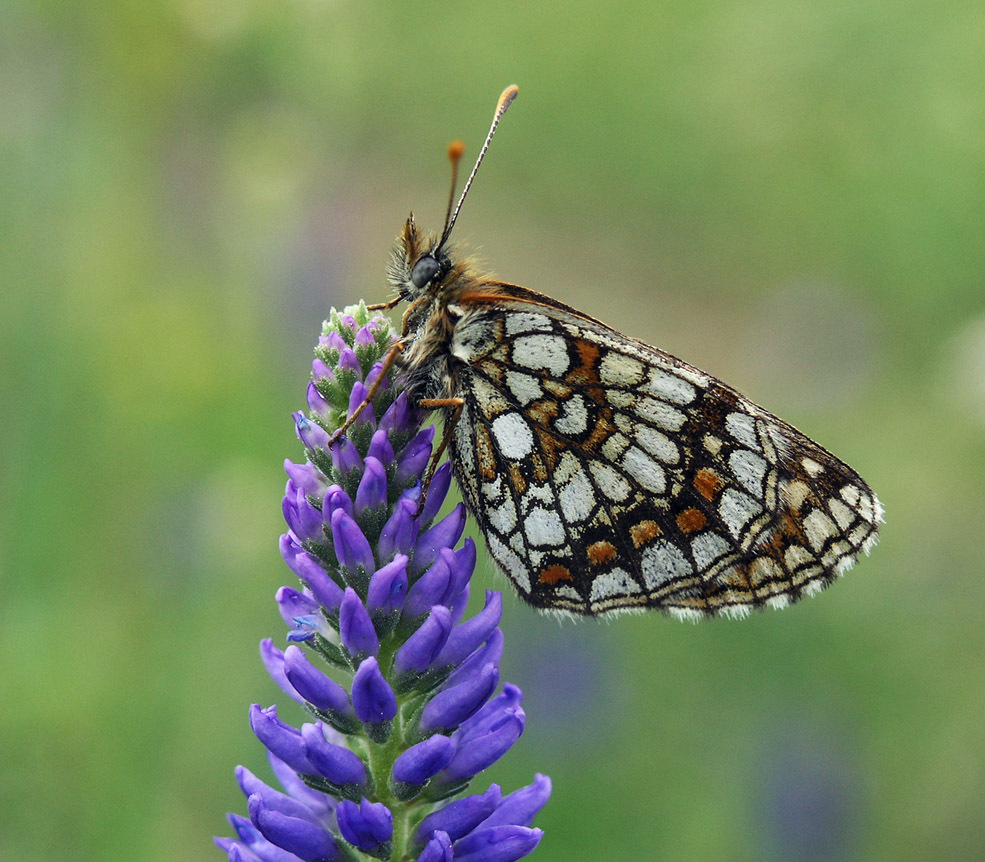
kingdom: Plantae
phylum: Tracheophyta
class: Magnoliopsida
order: Lamiales
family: Plantaginaceae
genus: Veronica
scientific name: Veronica porphyriana
